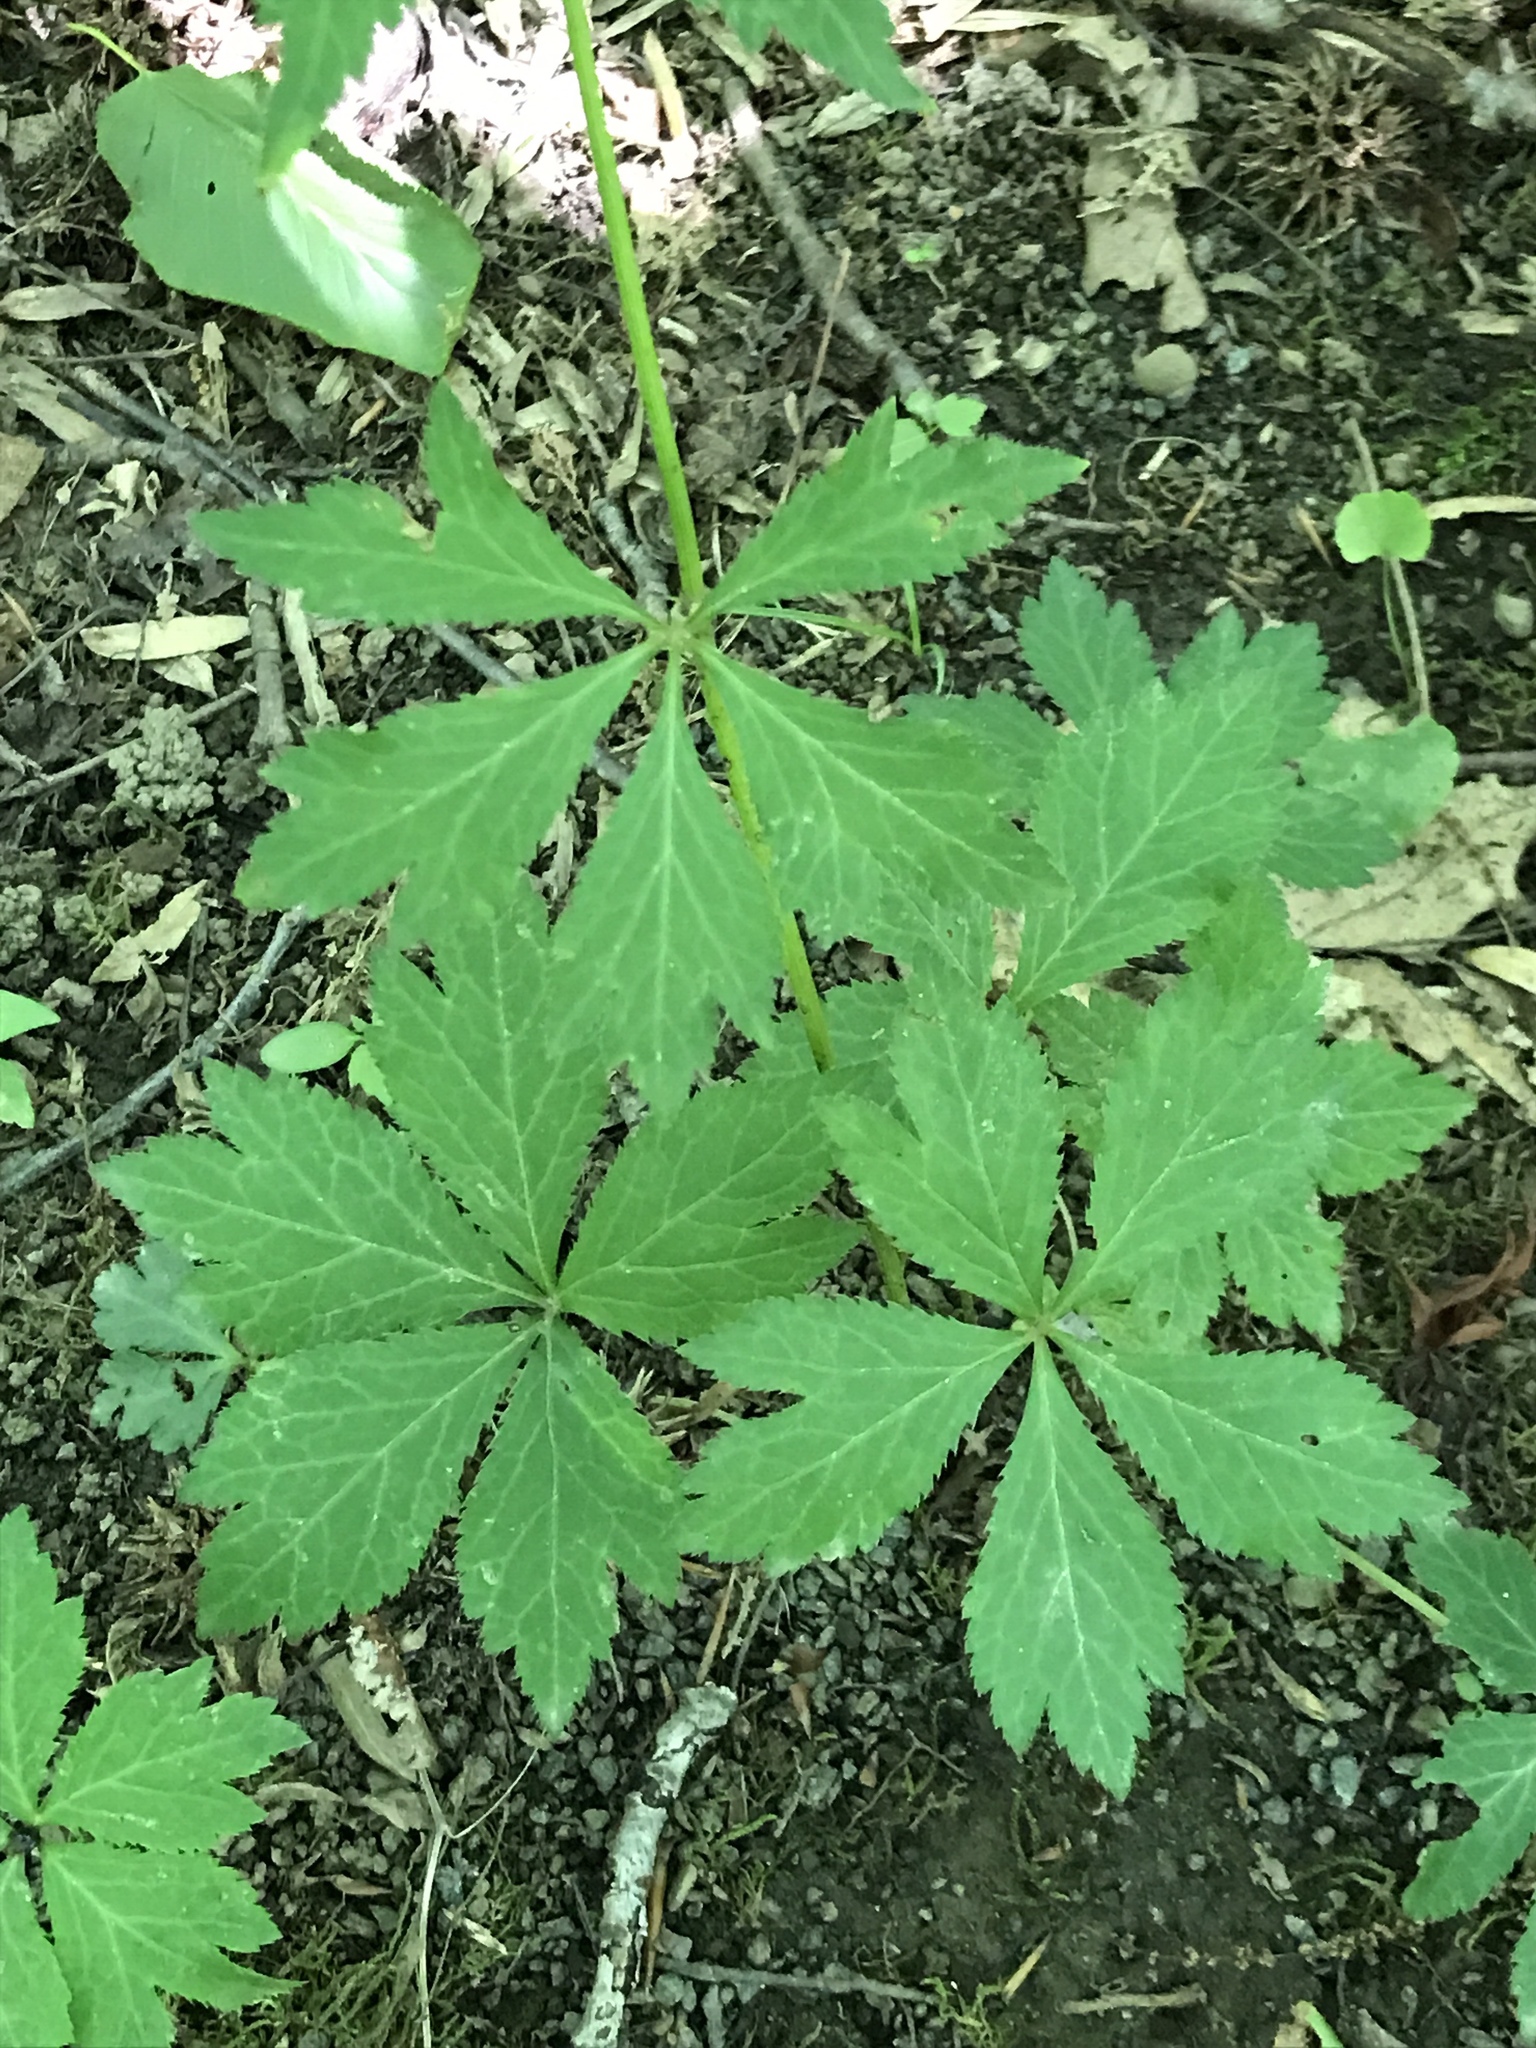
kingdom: Plantae
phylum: Tracheophyta
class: Magnoliopsida
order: Apiales
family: Apiaceae
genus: Sanicula
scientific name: Sanicula canadensis
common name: Canada sanicle
